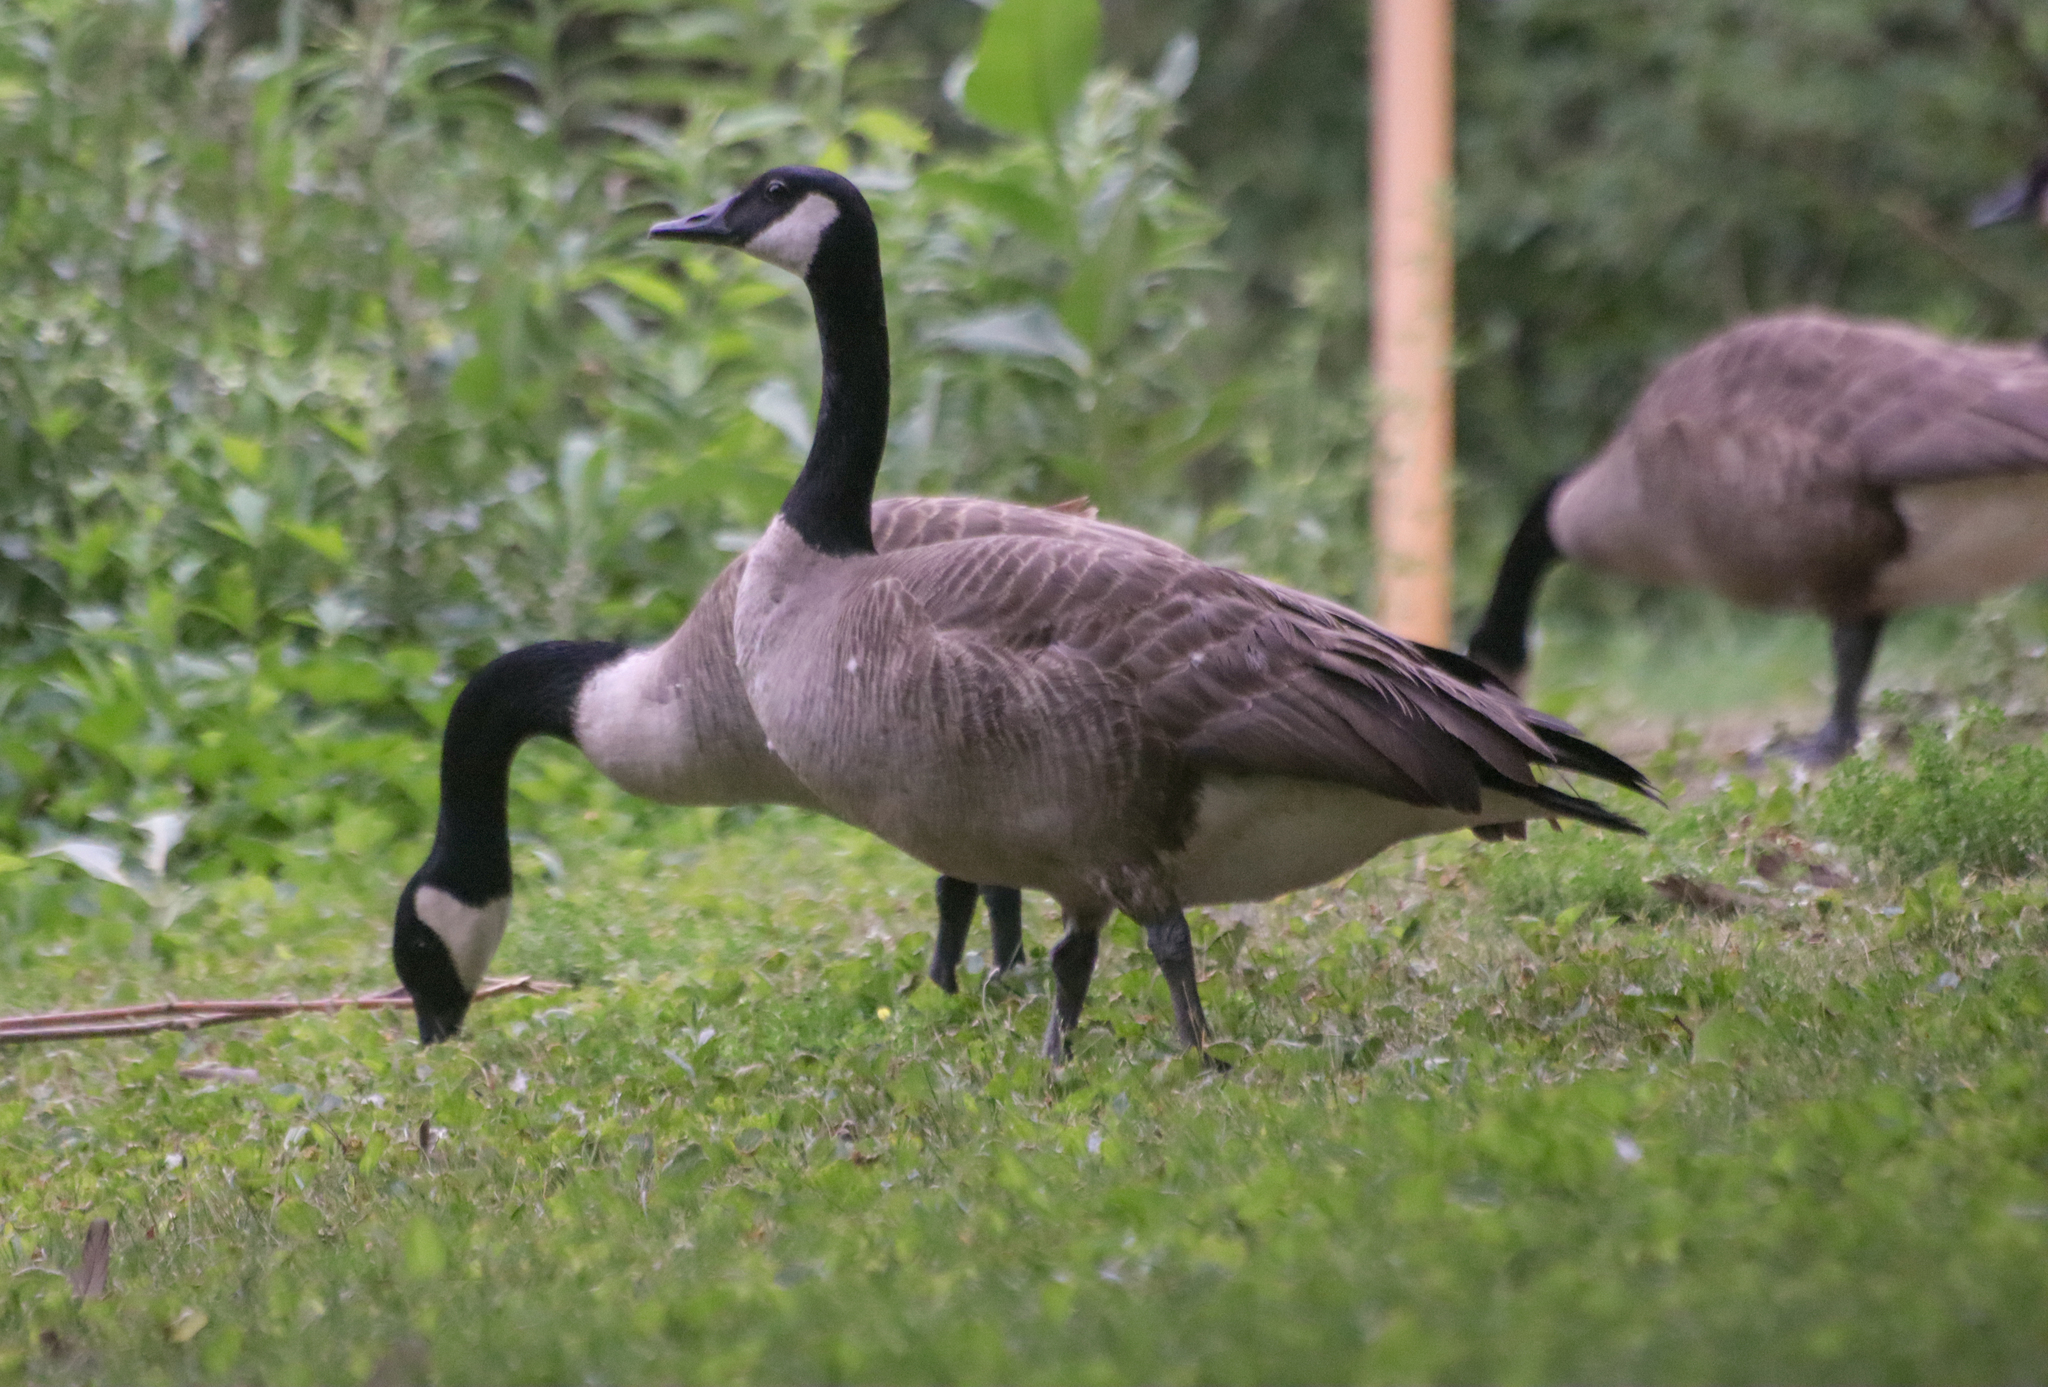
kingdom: Animalia
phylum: Chordata
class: Aves
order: Anseriformes
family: Anatidae
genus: Branta
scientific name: Branta canadensis
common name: Canada goose
